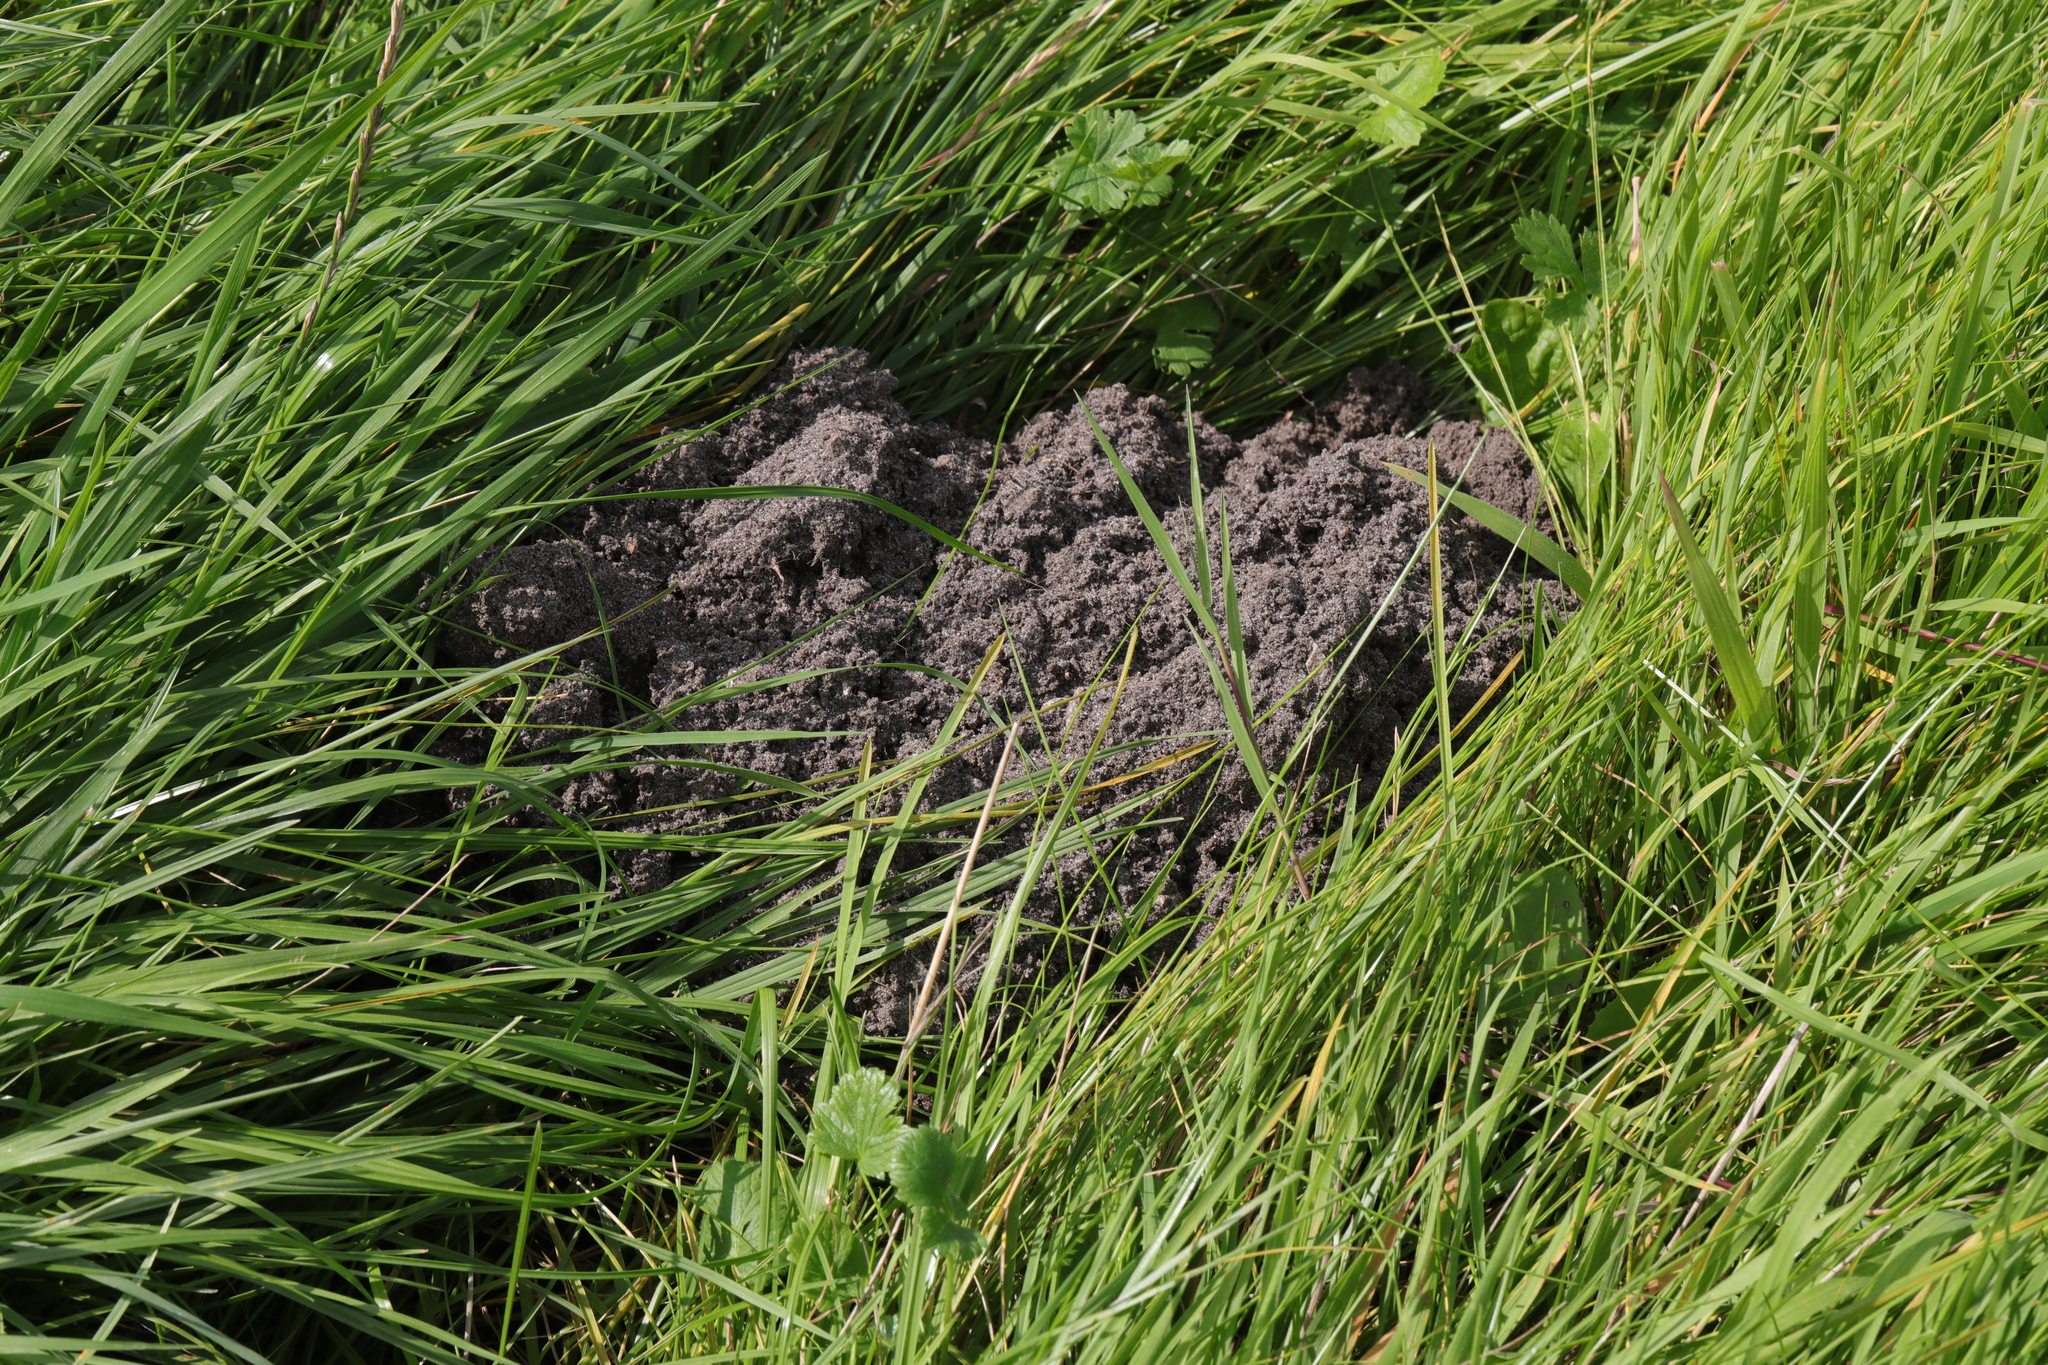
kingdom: Animalia
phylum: Chordata
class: Mammalia
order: Soricomorpha
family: Talpidae
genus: Talpa
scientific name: Talpa europaea
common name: European mole
